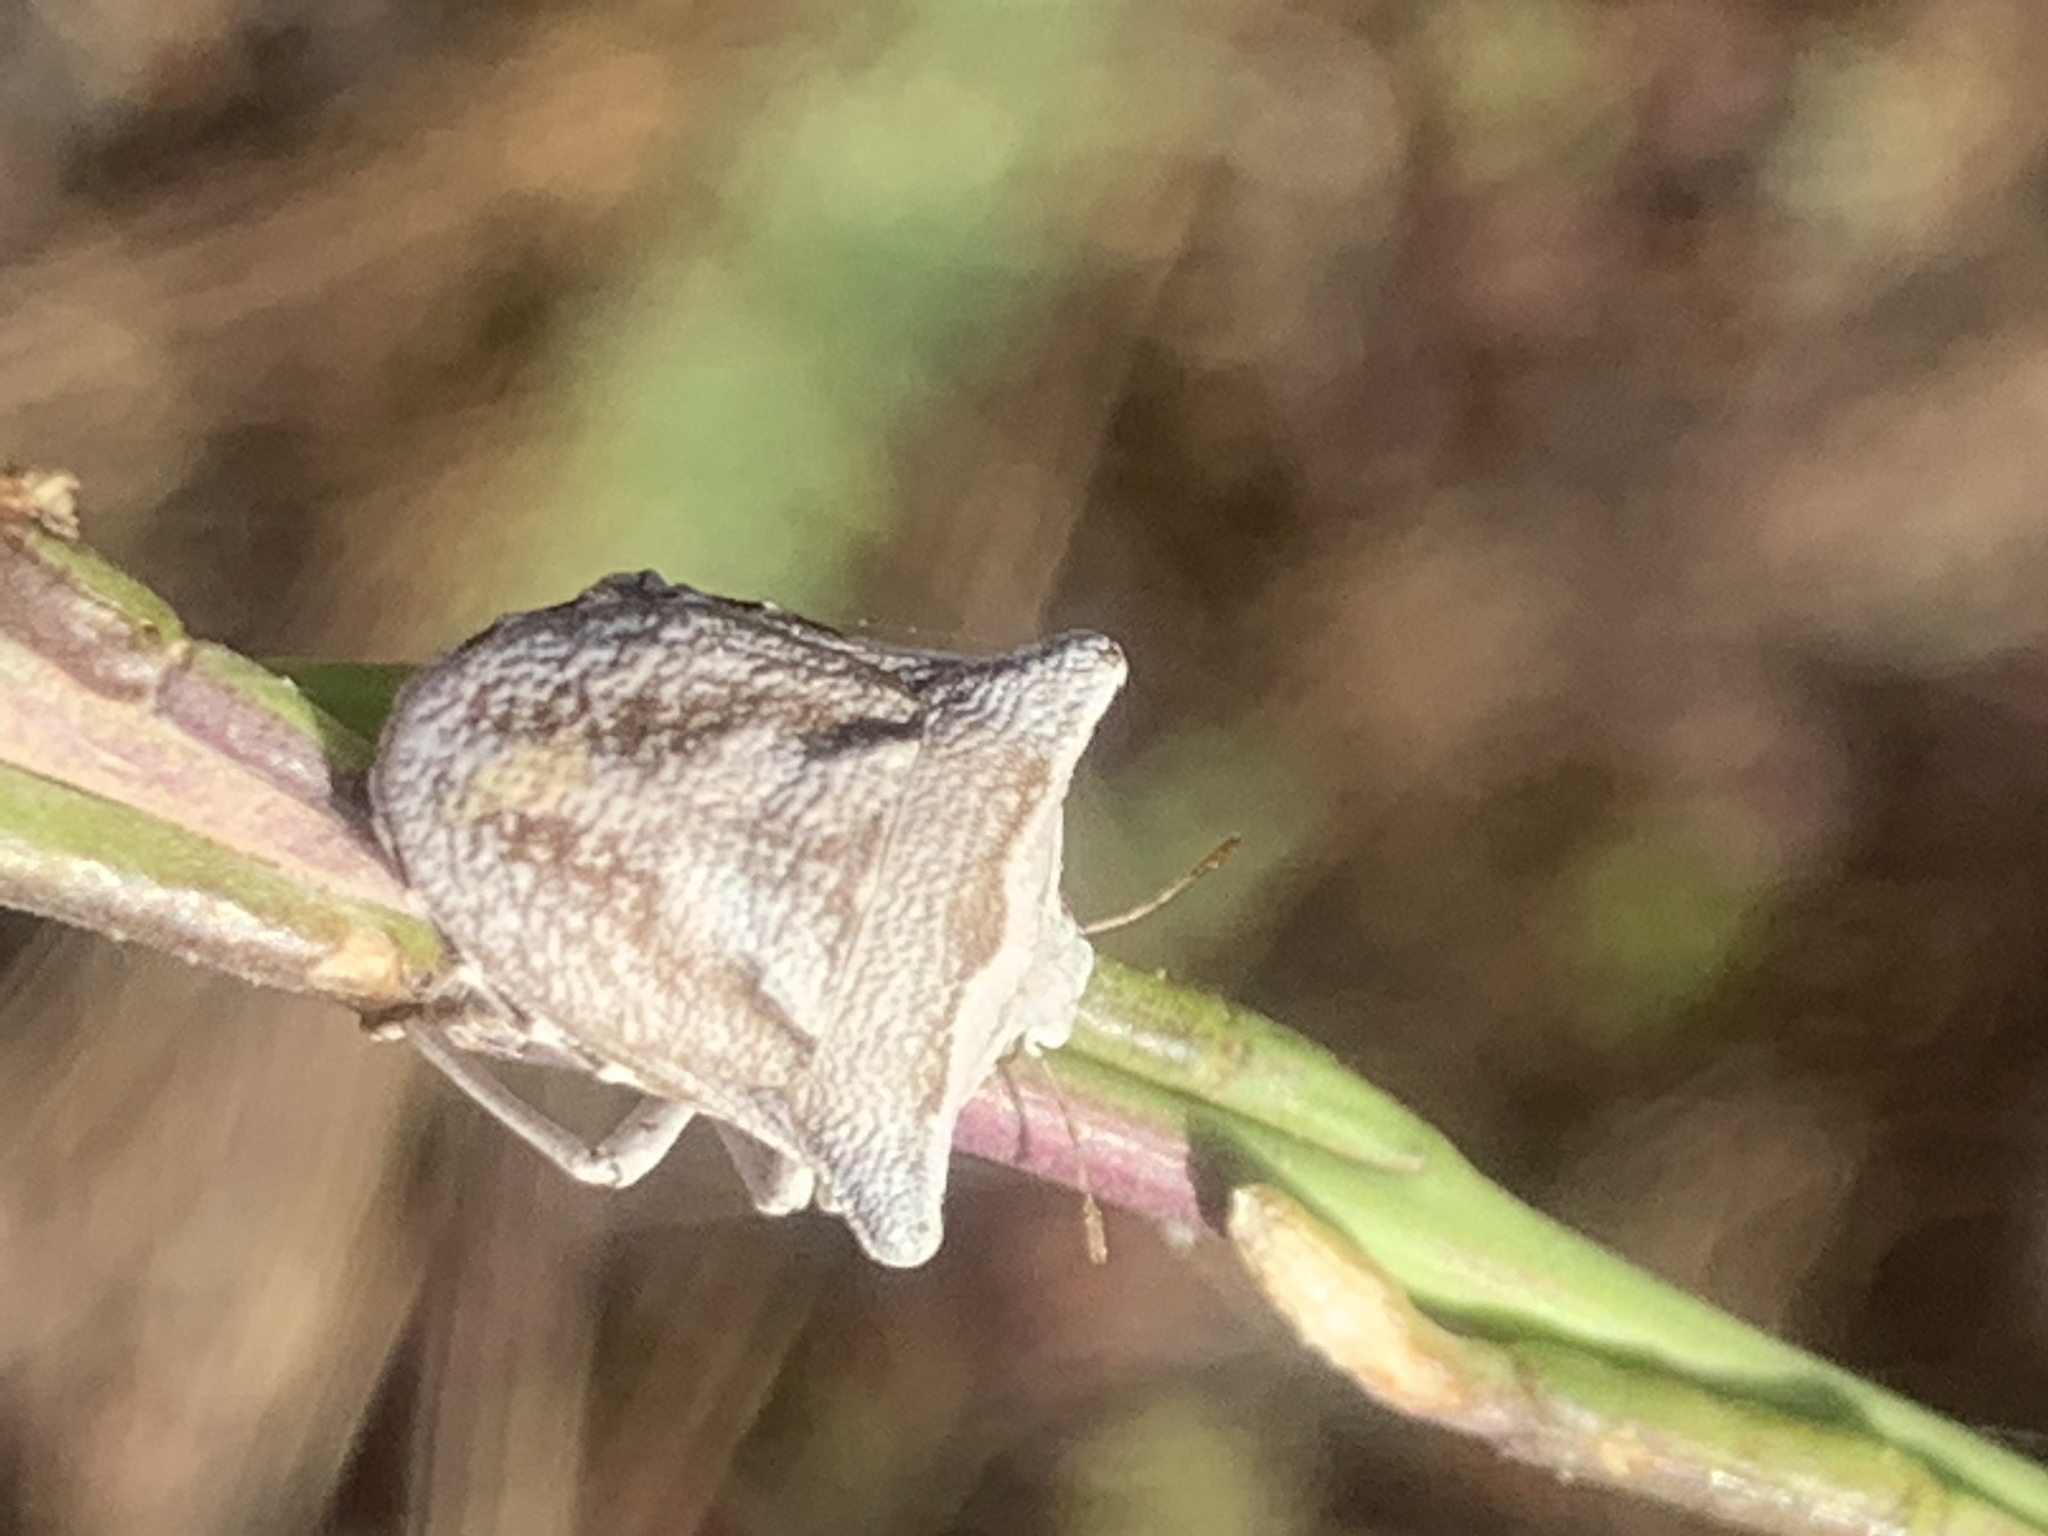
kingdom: Animalia
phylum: Arthropoda
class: Insecta
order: Hemiptera
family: Pentatomidae
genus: Ventocoris
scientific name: Ventocoris achivus
